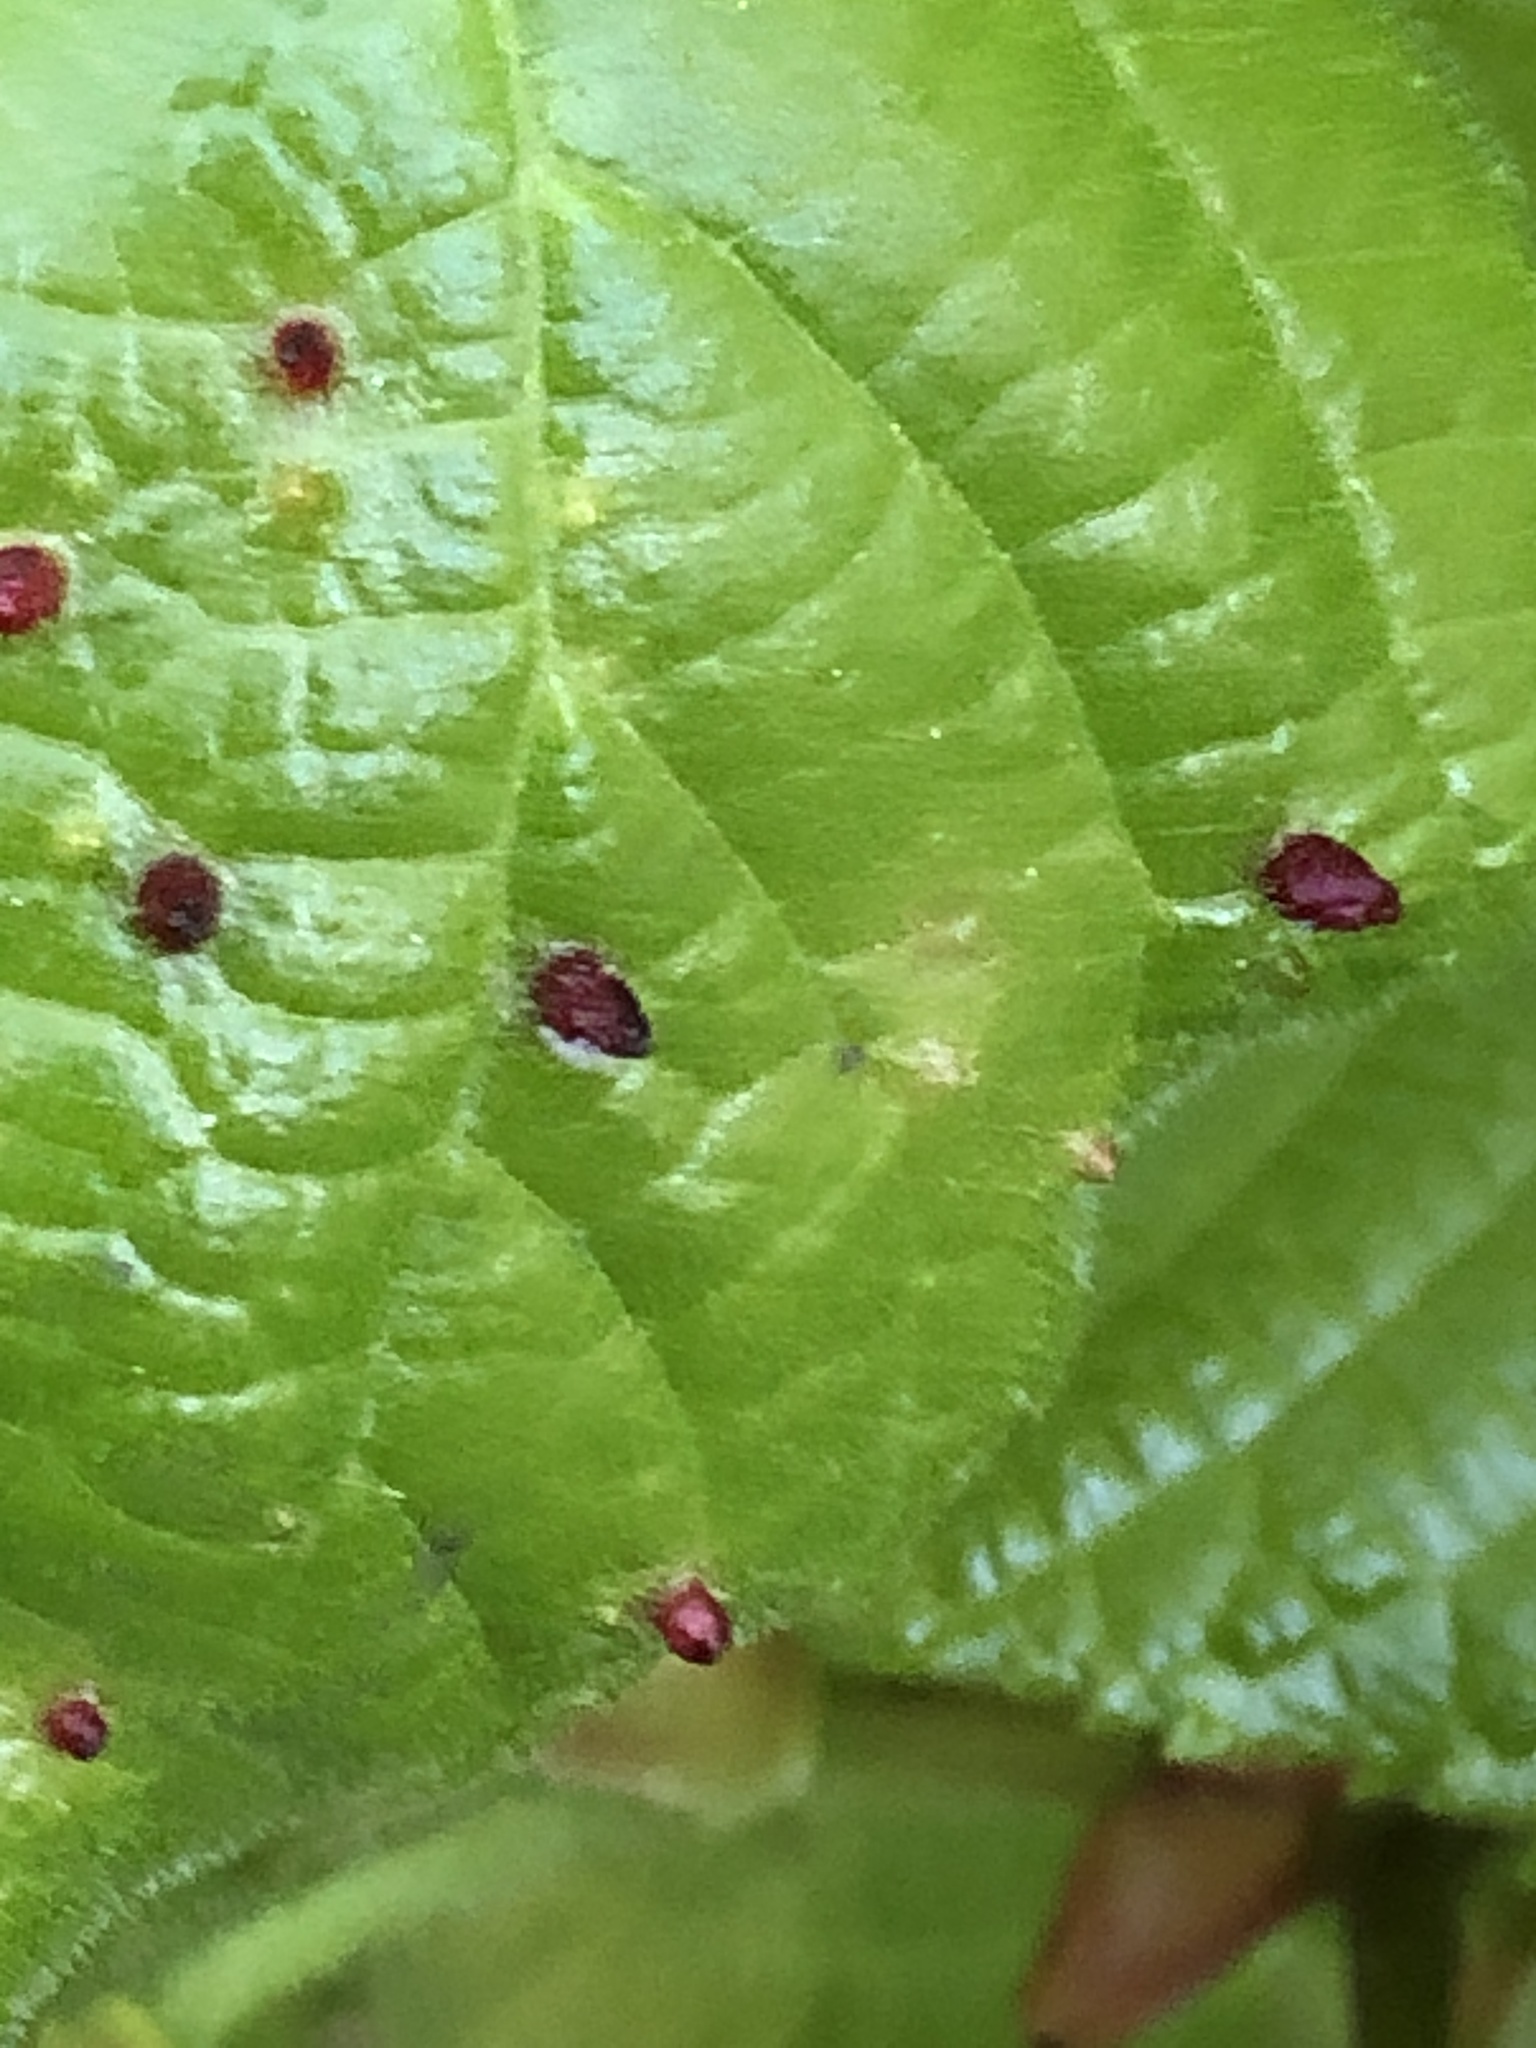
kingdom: Animalia
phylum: Arthropoda
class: Arachnida
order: Trombidiformes
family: Eriophyidae
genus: Eriophyes
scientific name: Eriophyes tiliae
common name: Red nail gall mite
